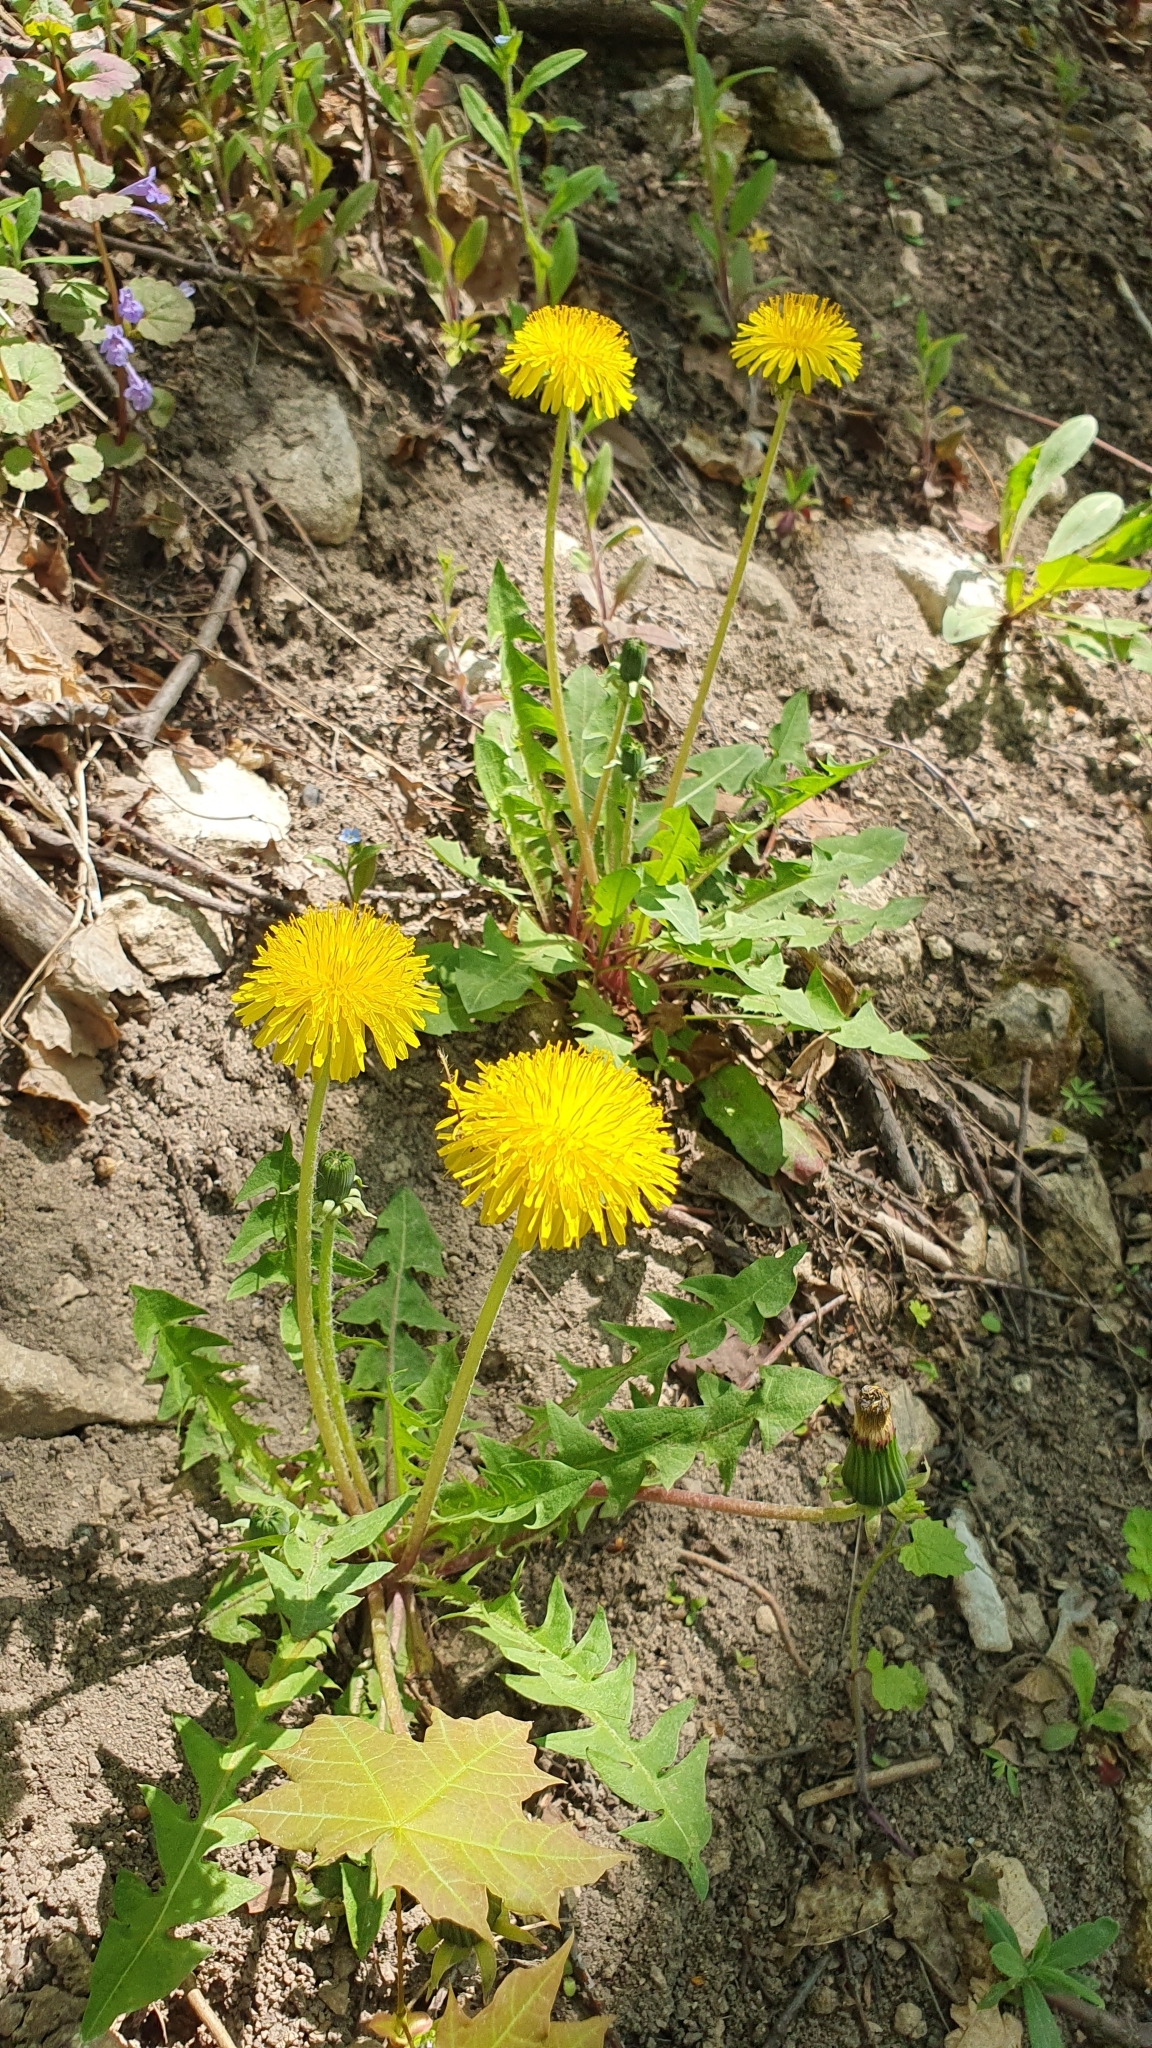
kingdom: Plantae
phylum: Tracheophyta
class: Magnoliopsida
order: Asterales
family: Asteraceae
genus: Taraxacum
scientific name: Taraxacum officinale
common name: Common dandelion
